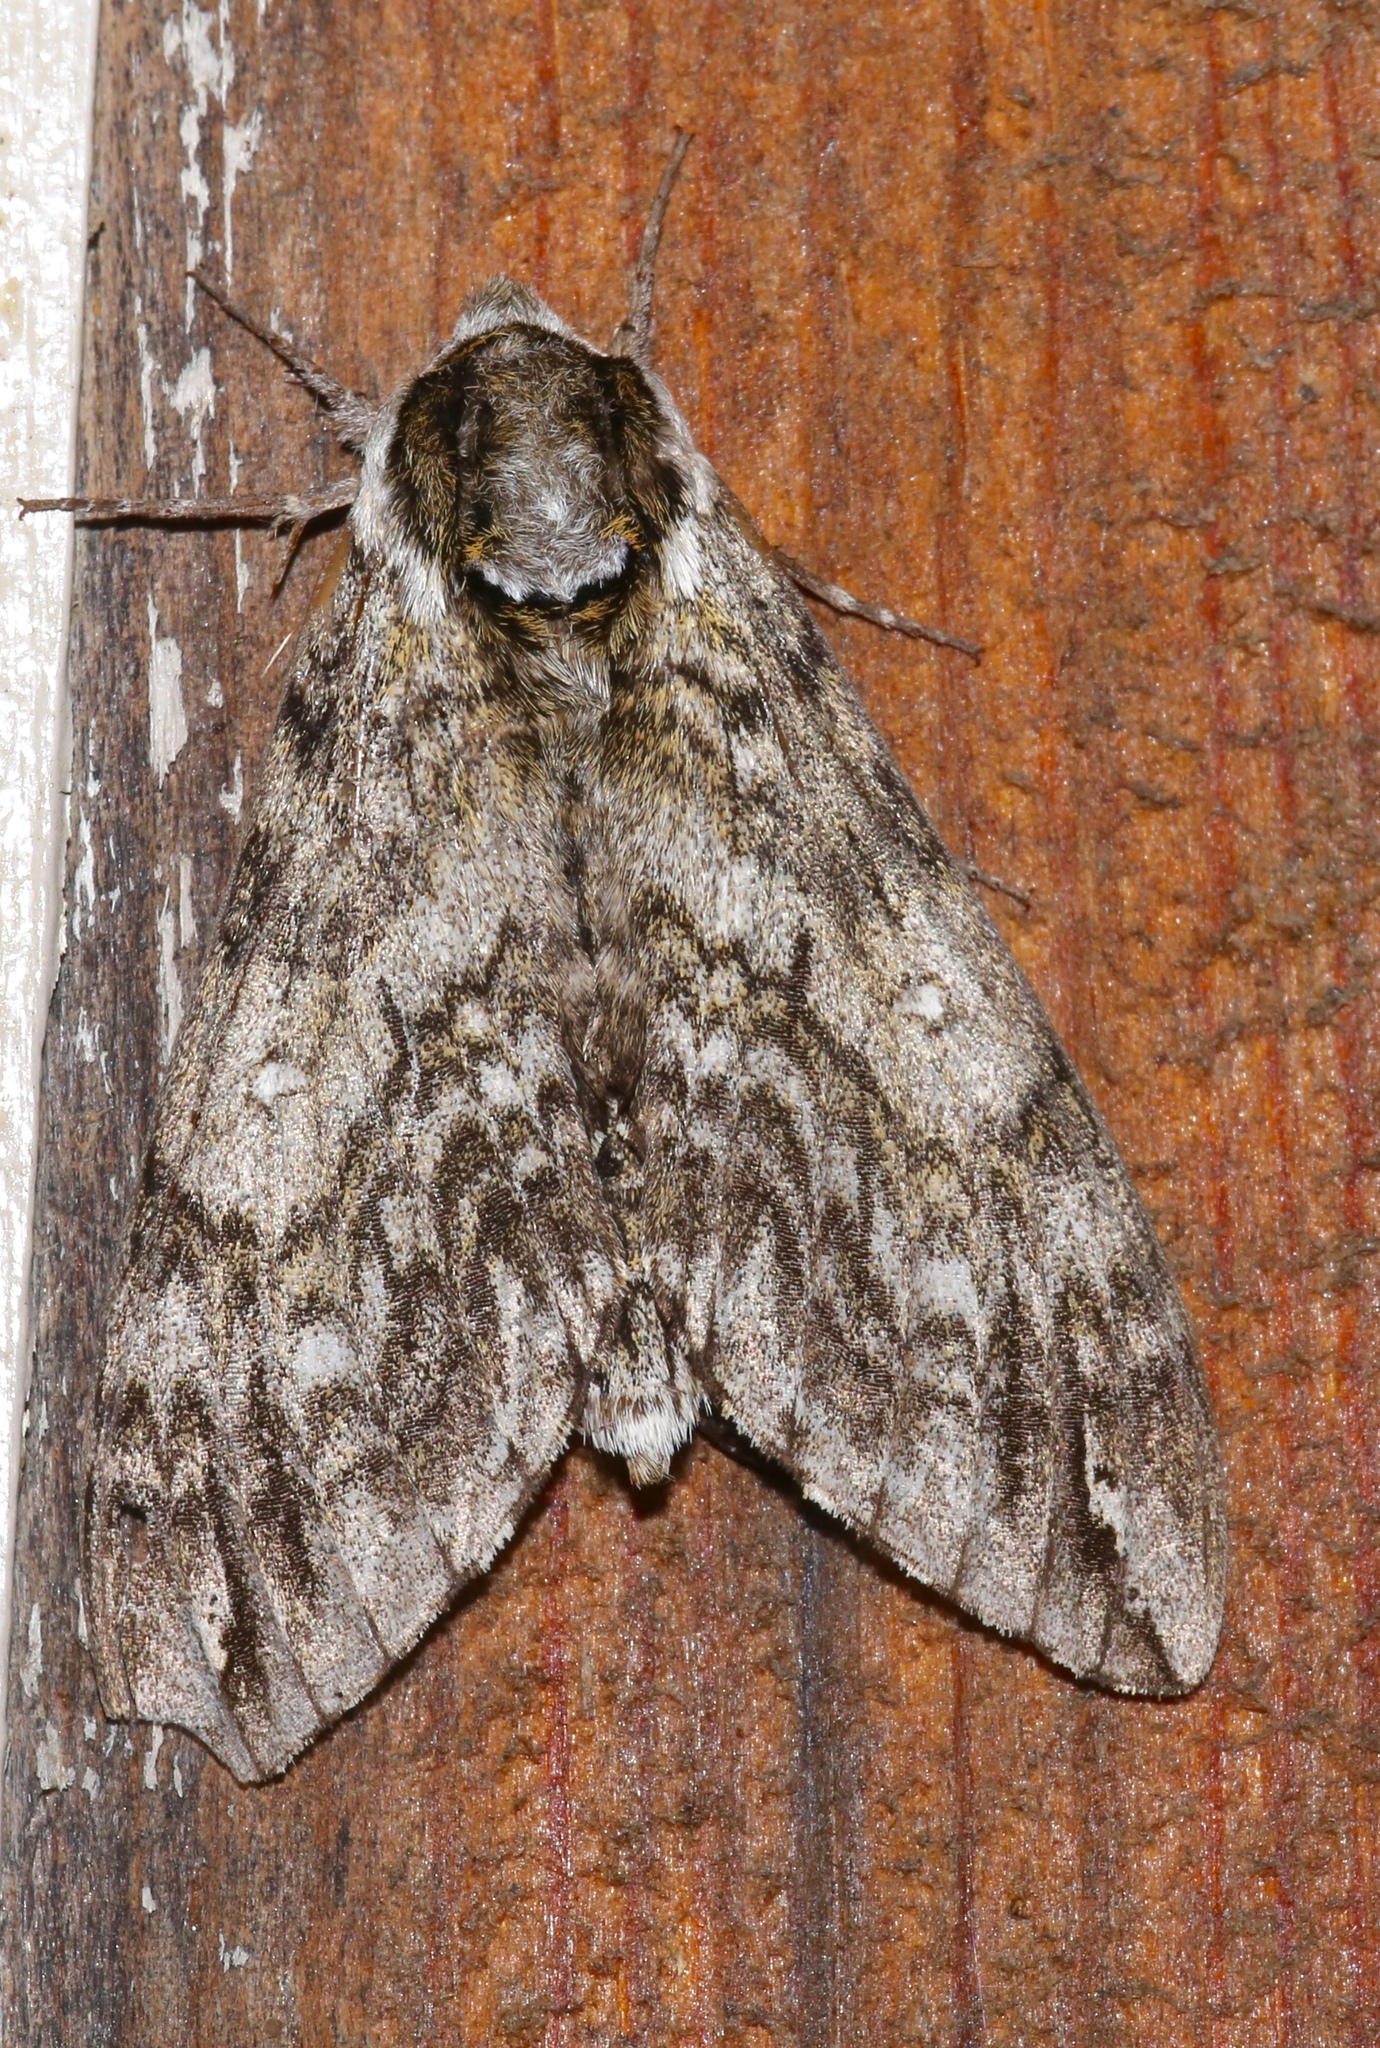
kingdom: Animalia
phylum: Arthropoda
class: Insecta
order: Lepidoptera
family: Sphingidae
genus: Ceratomia
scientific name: Ceratomia undulosa
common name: Waved sphinx
